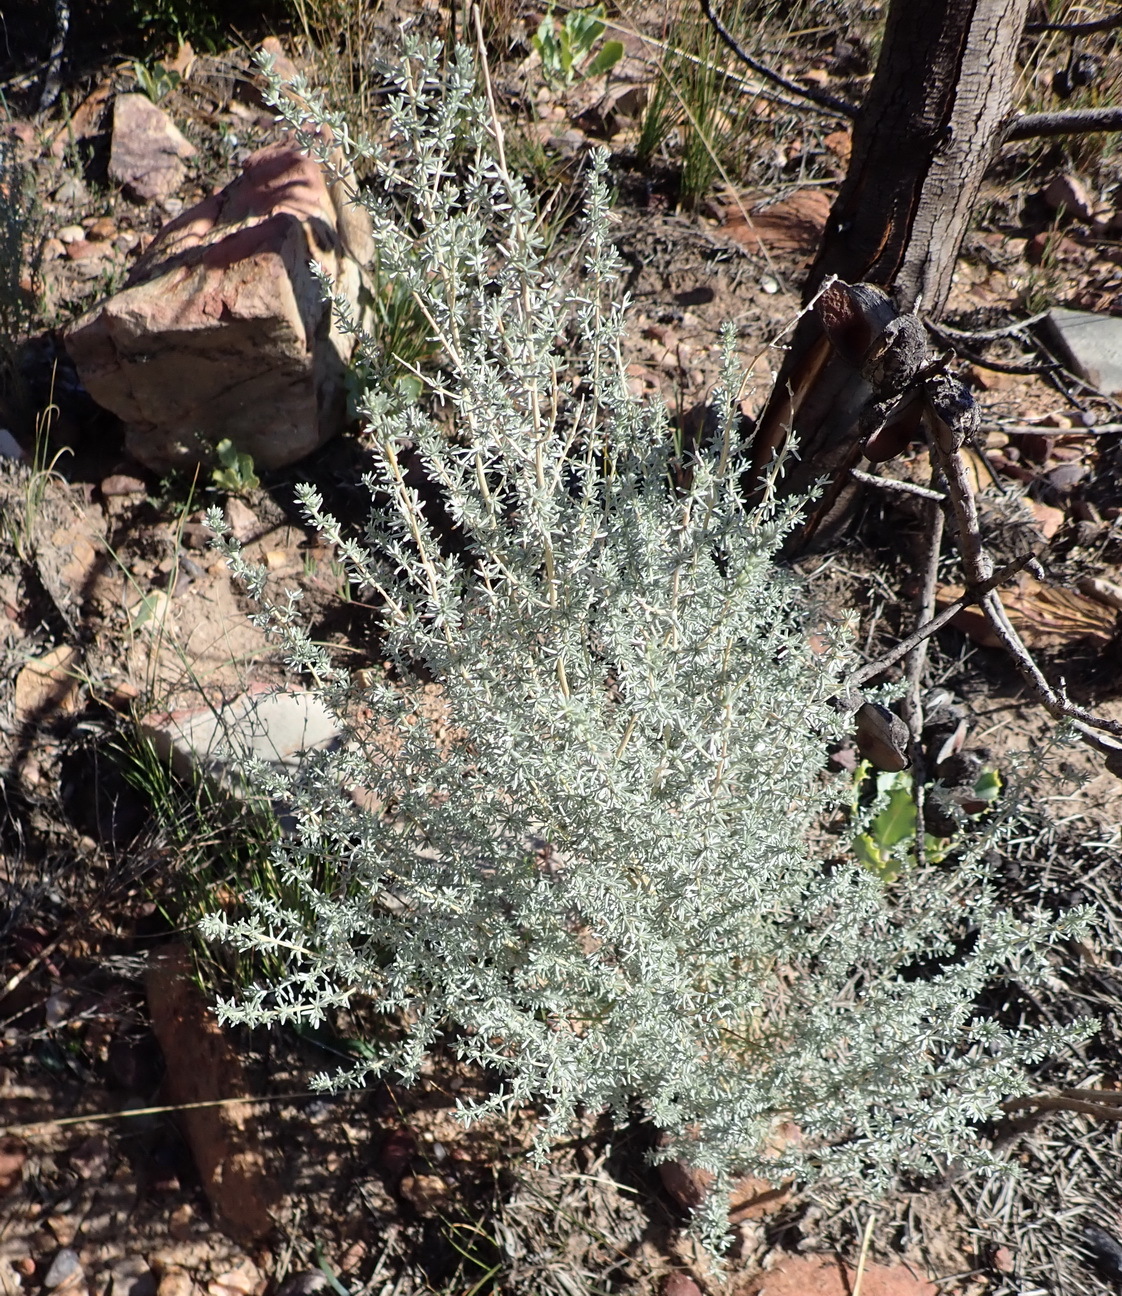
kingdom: Plantae
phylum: Tracheophyta
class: Magnoliopsida
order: Fabales
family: Fabaceae
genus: Aspalathus
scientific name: Aspalathus pedunculata
